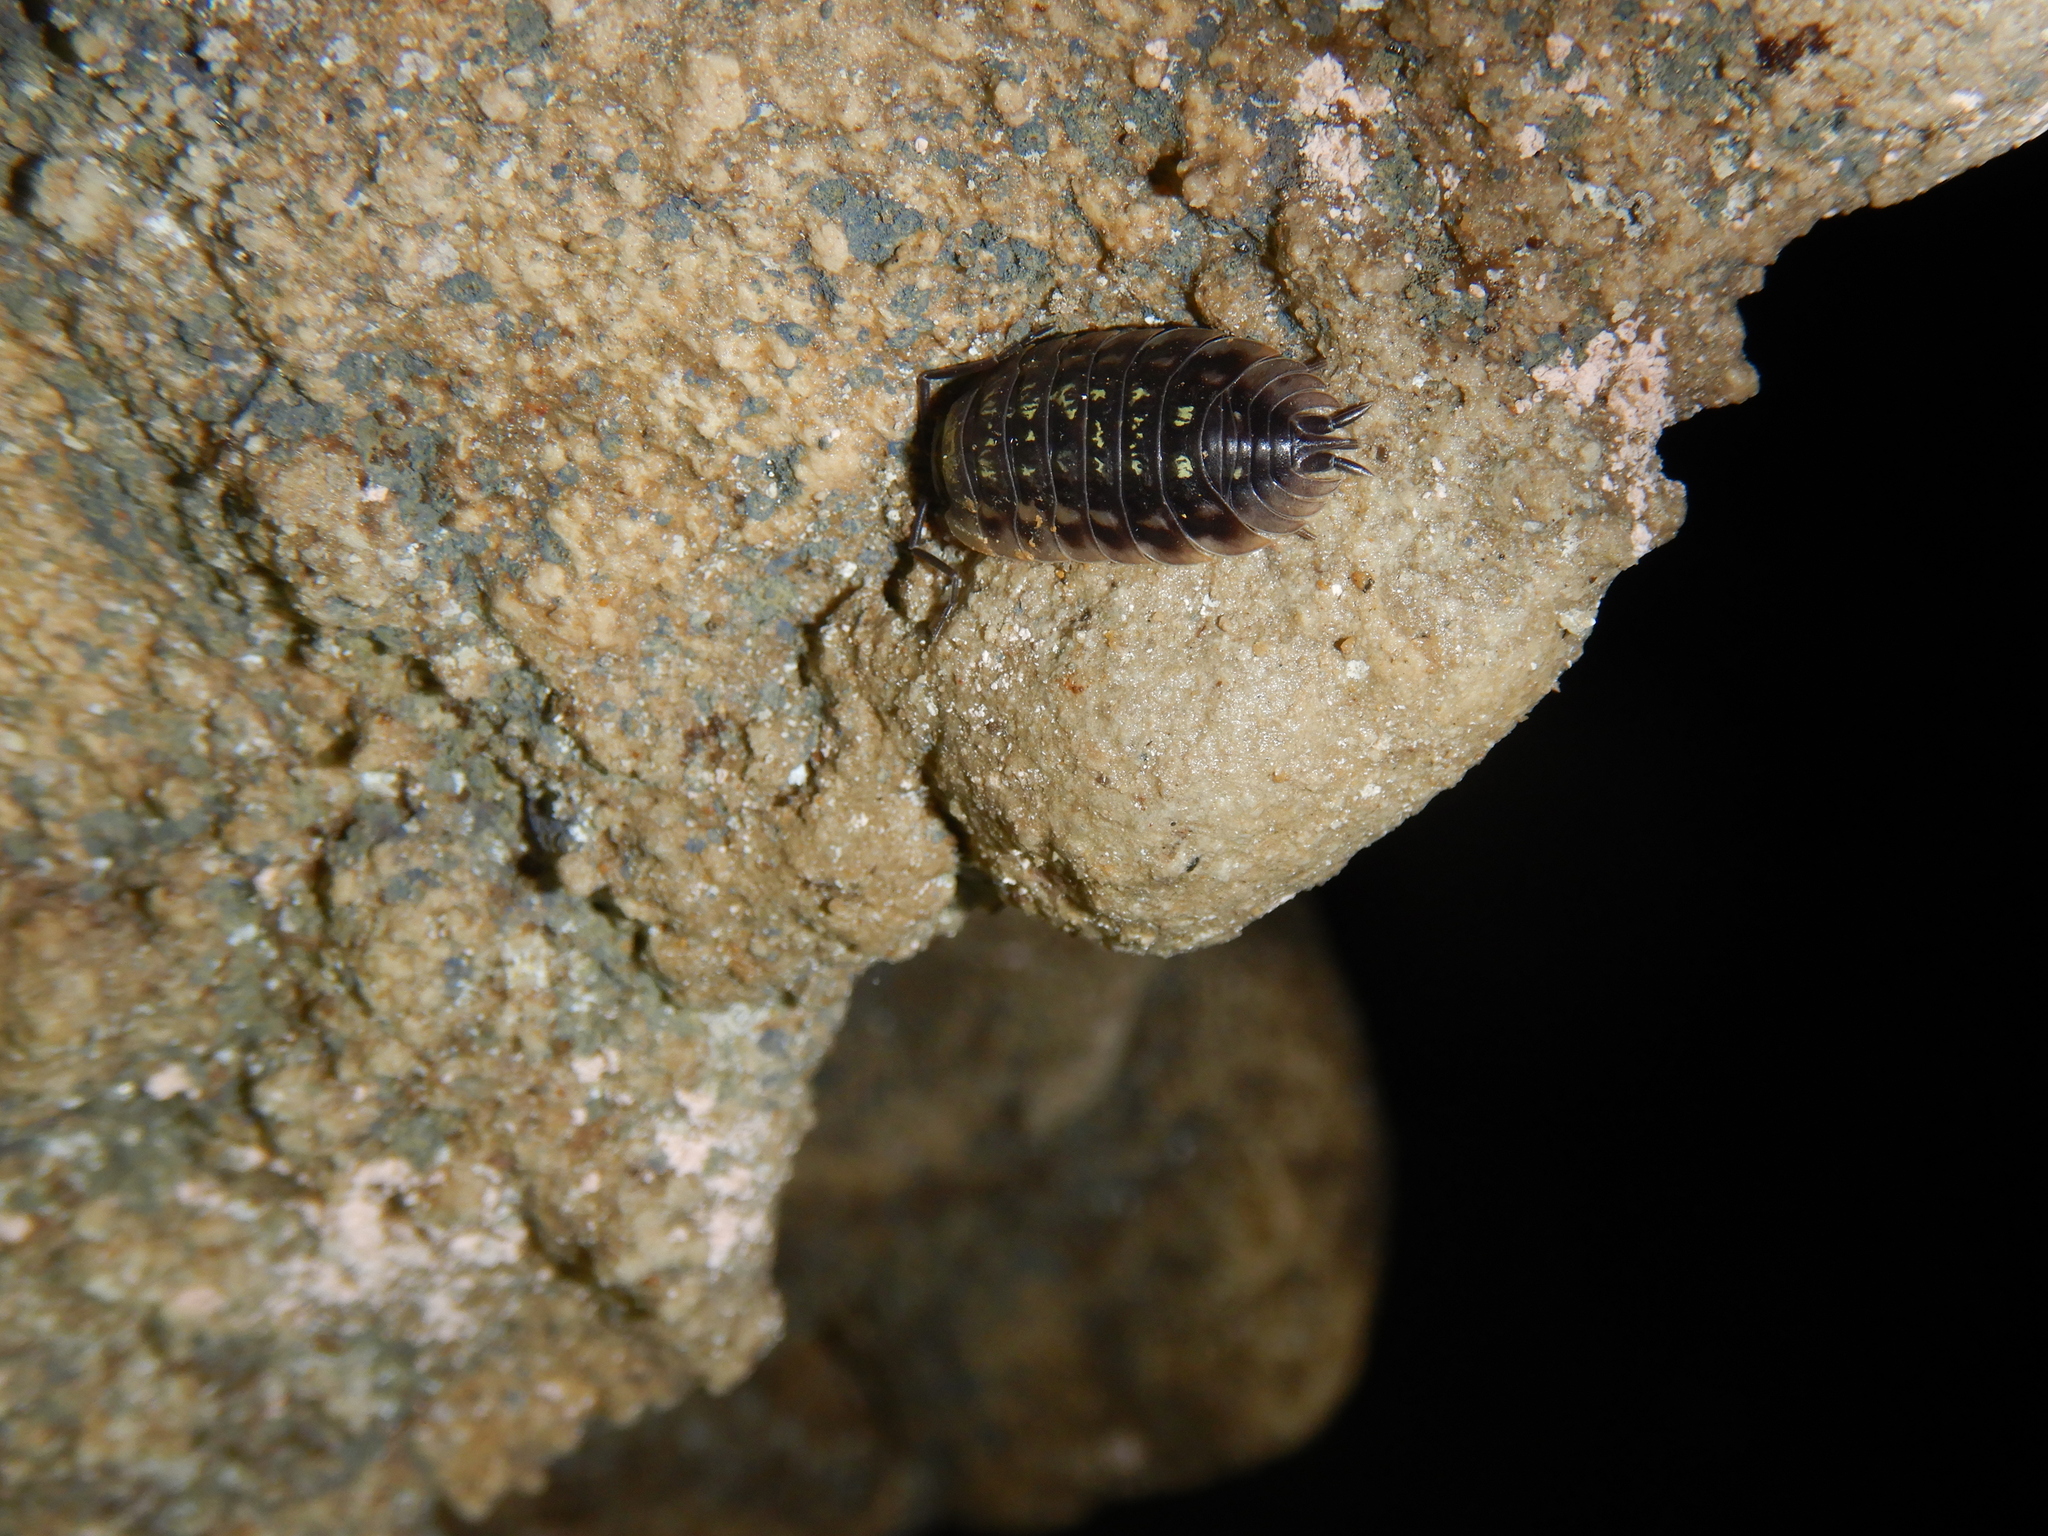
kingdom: Animalia
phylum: Arthropoda
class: Malacostraca
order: Isopoda
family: Oniscidae
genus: Oniscus
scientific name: Oniscus asellus
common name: Common shiny woodlouse
